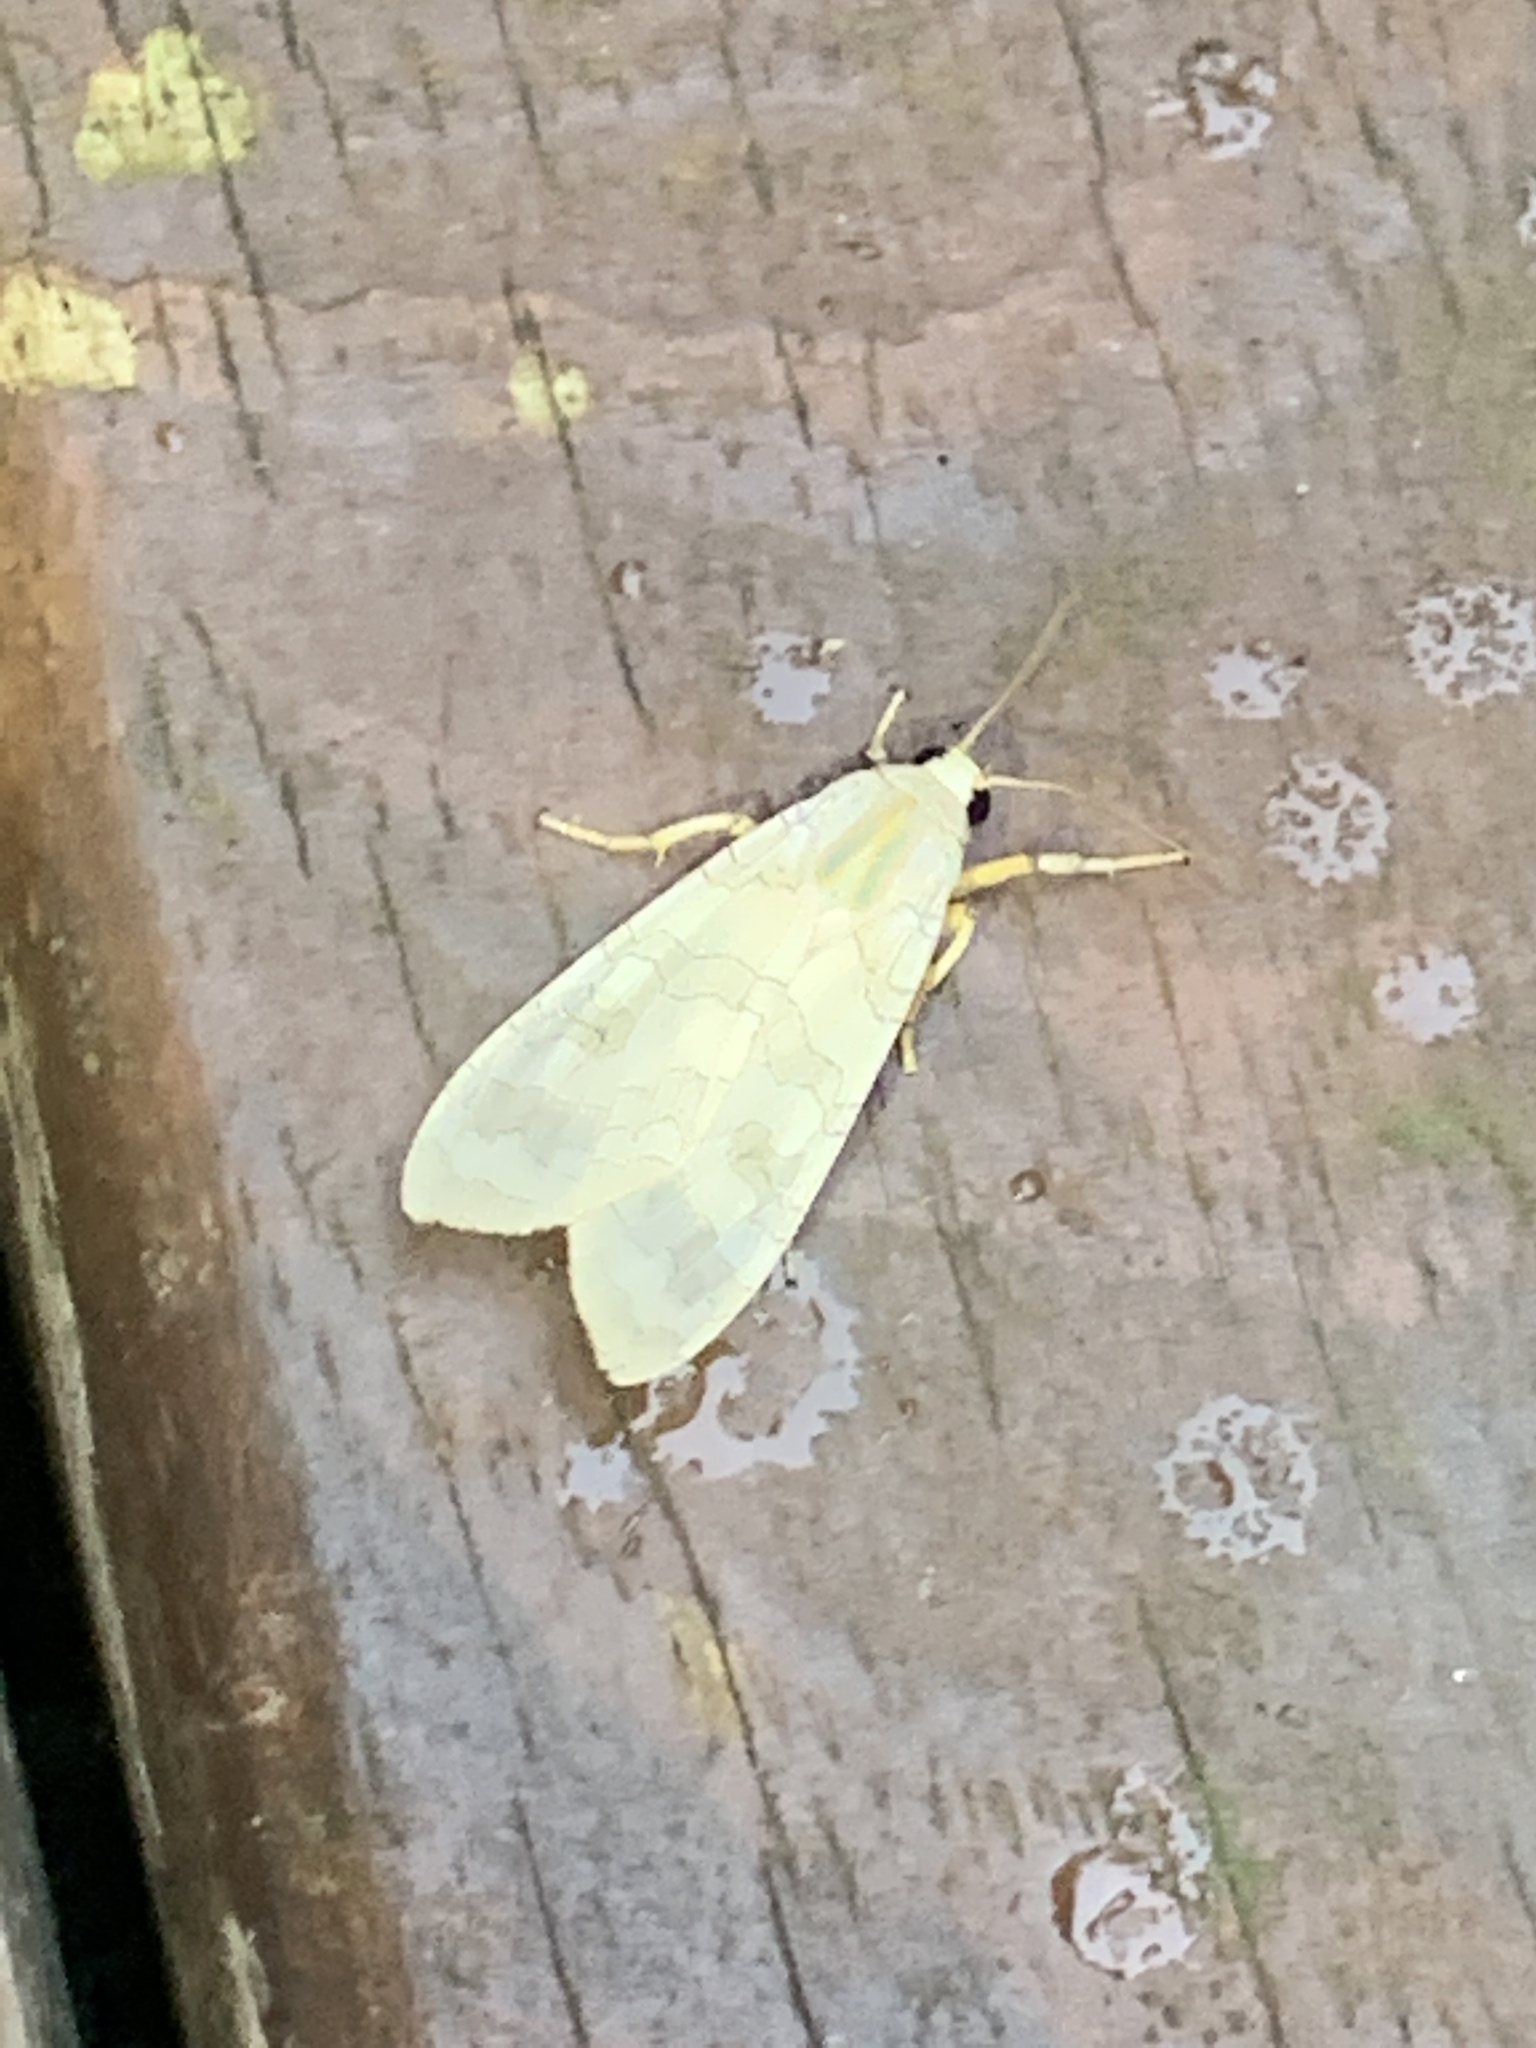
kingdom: Animalia
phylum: Arthropoda
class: Insecta
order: Lepidoptera
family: Erebidae
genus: Halysidota
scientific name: Halysidota
